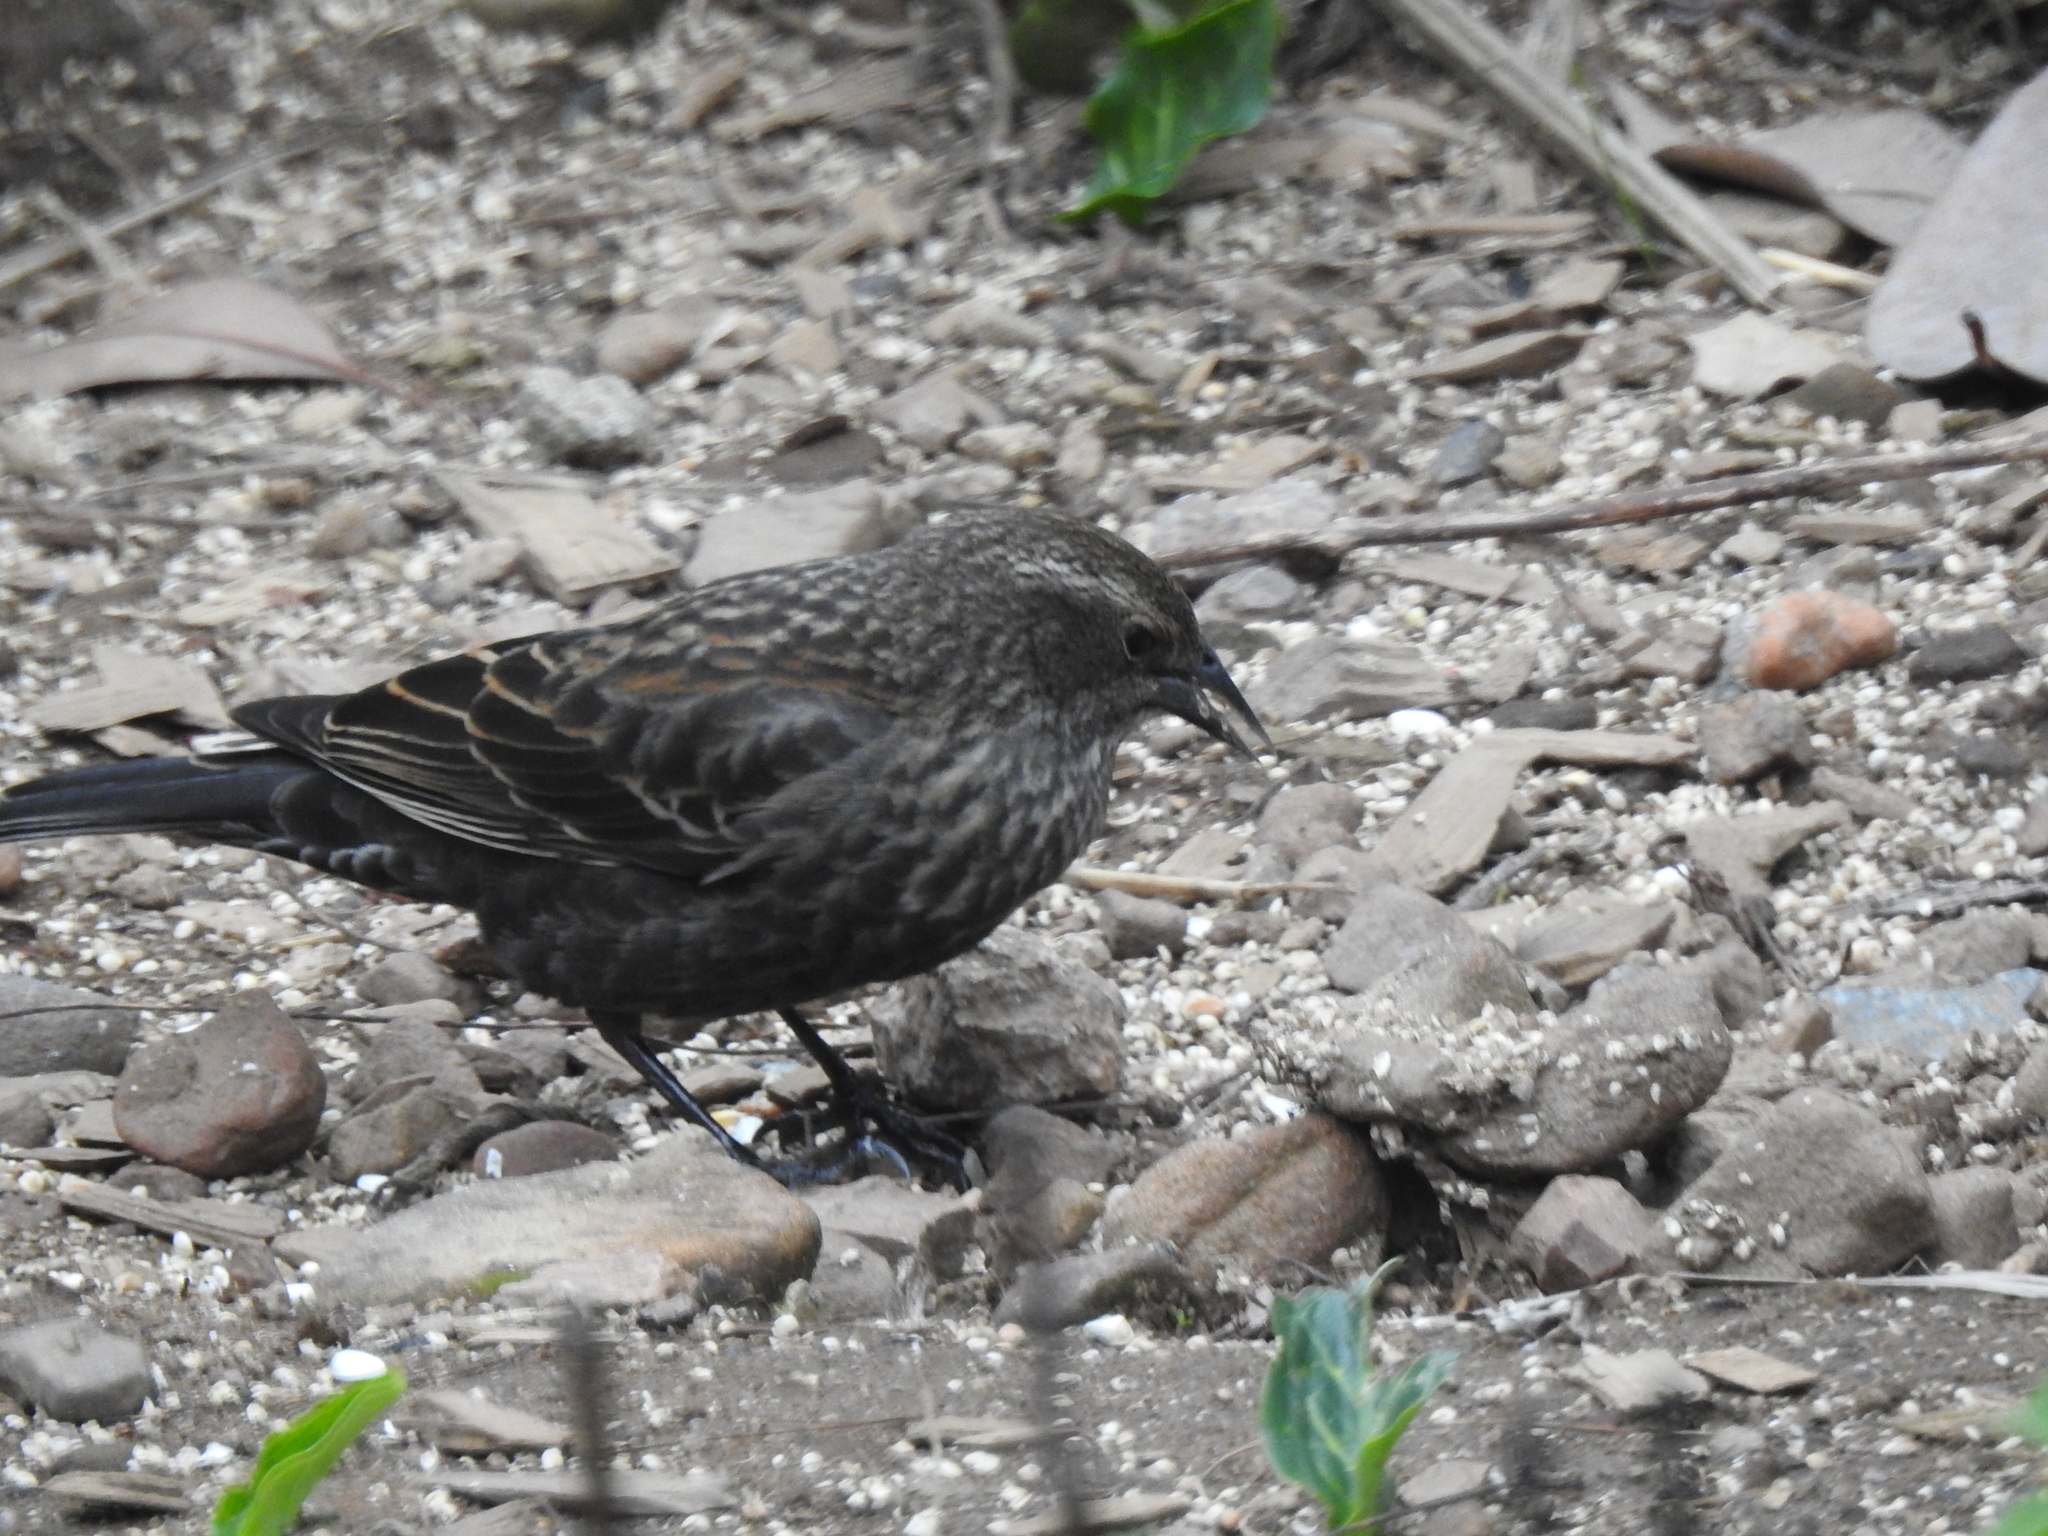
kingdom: Animalia
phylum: Chordata
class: Aves
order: Passeriformes
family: Icteridae
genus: Agelaius
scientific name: Agelaius phoeniceus
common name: Red-winged blackbird
